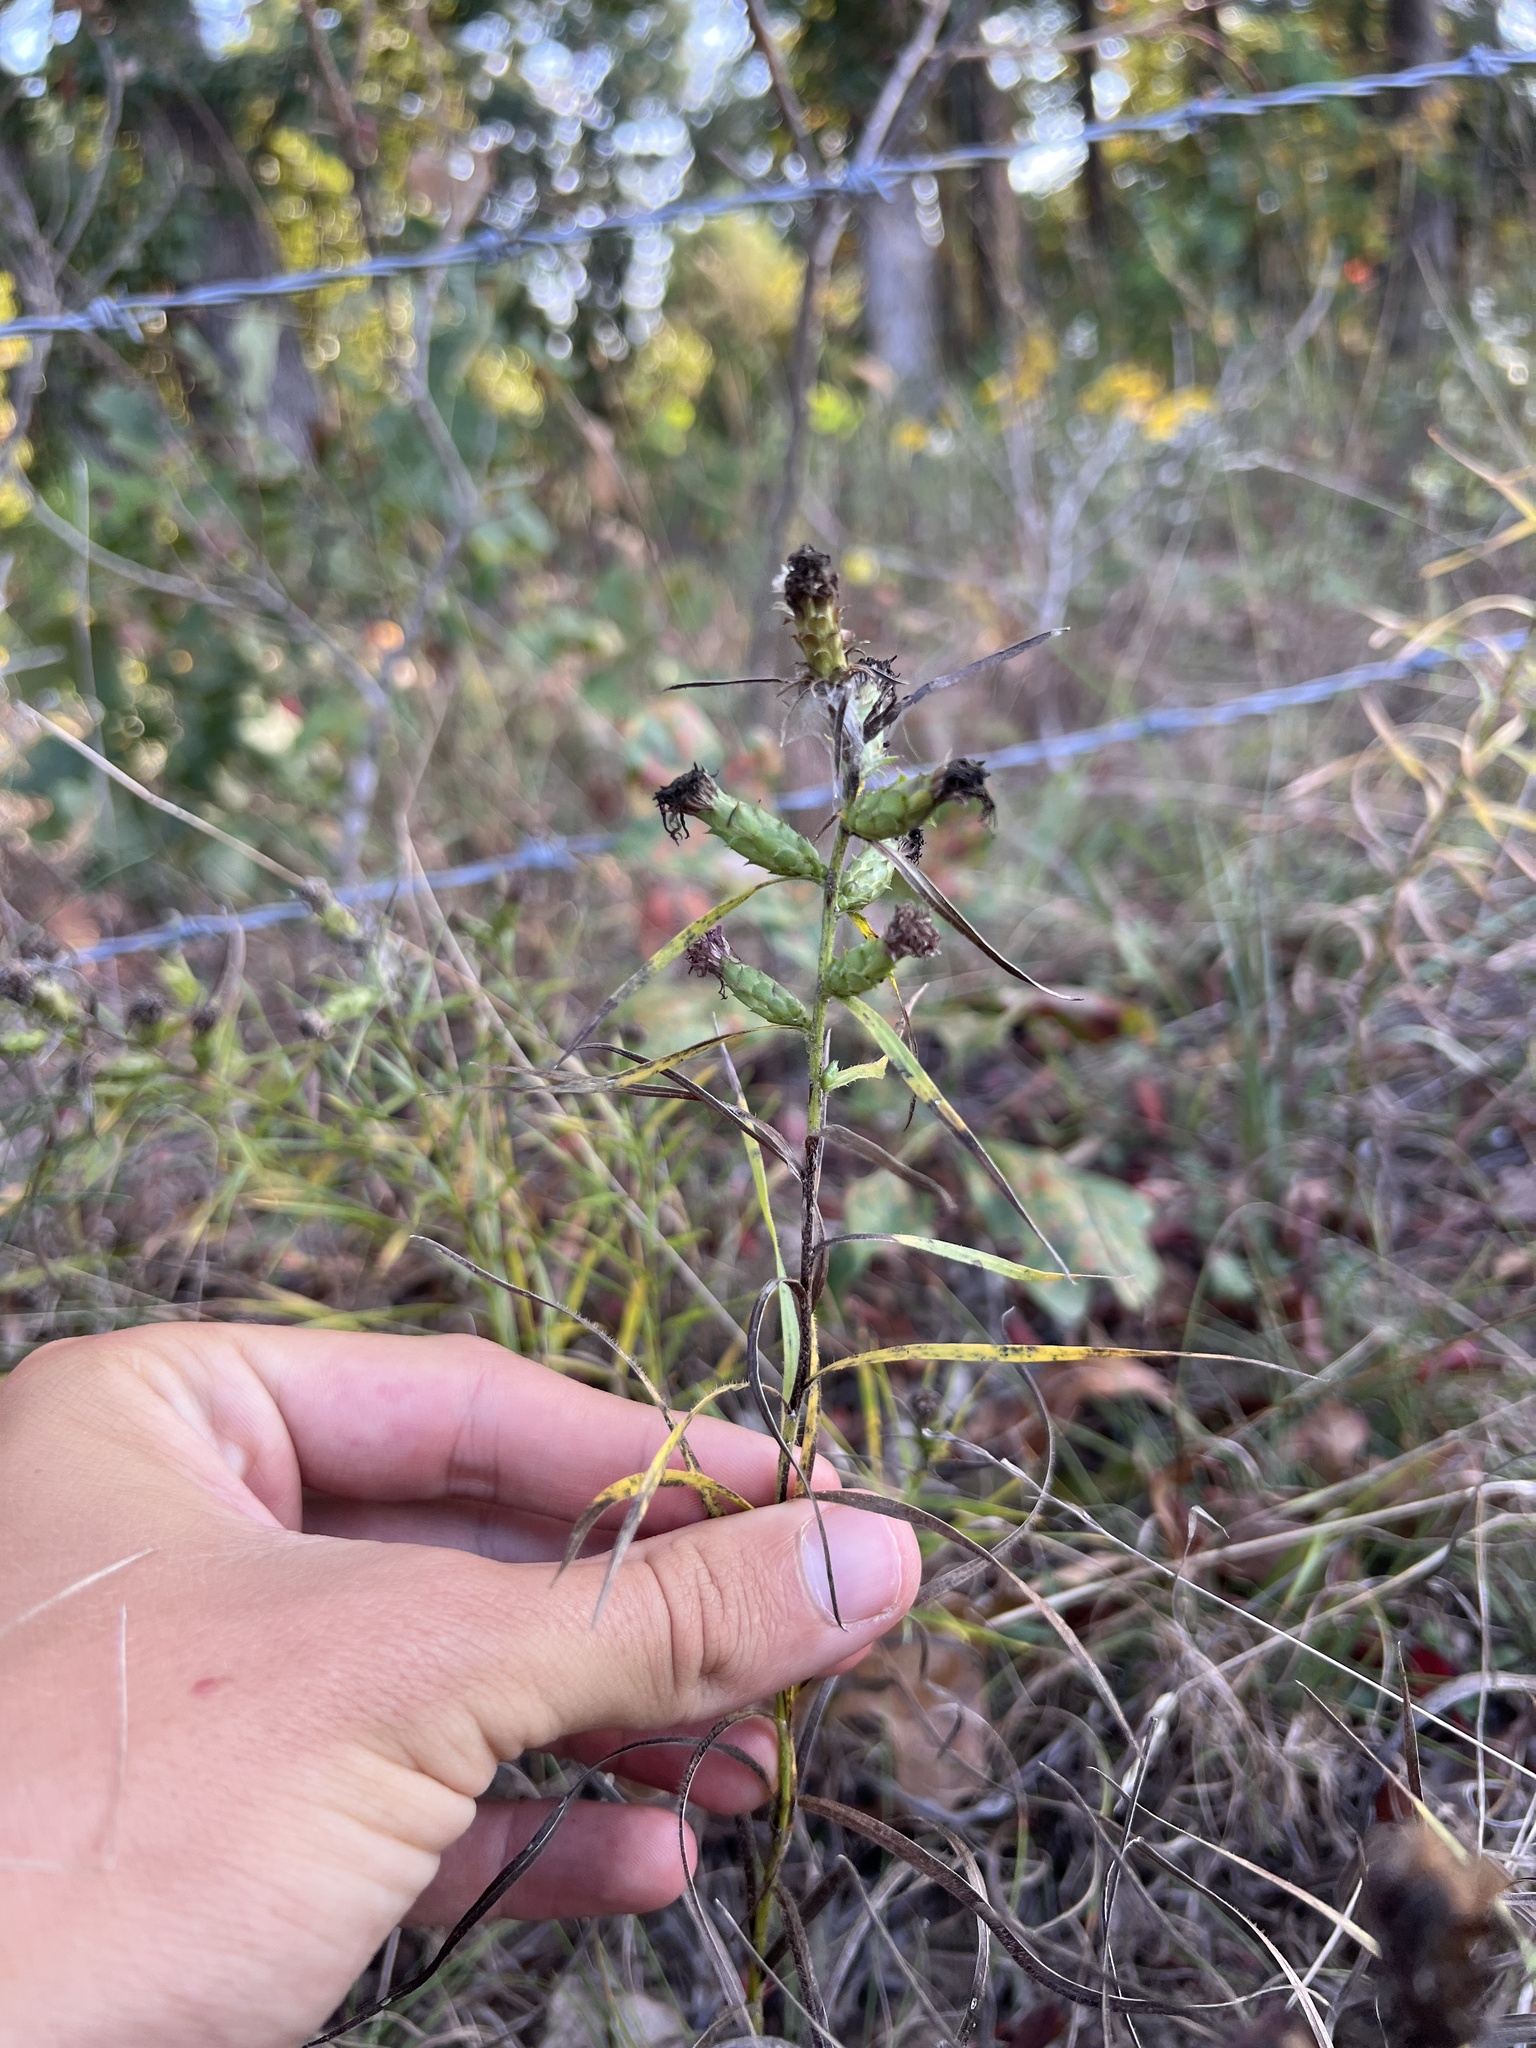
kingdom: Plantae
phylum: Tracheophyta
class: Magnoliopsida
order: Asterales
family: Asteraceae
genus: Liatris
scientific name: Liatris cylindracea
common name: Few-head blazingstar
